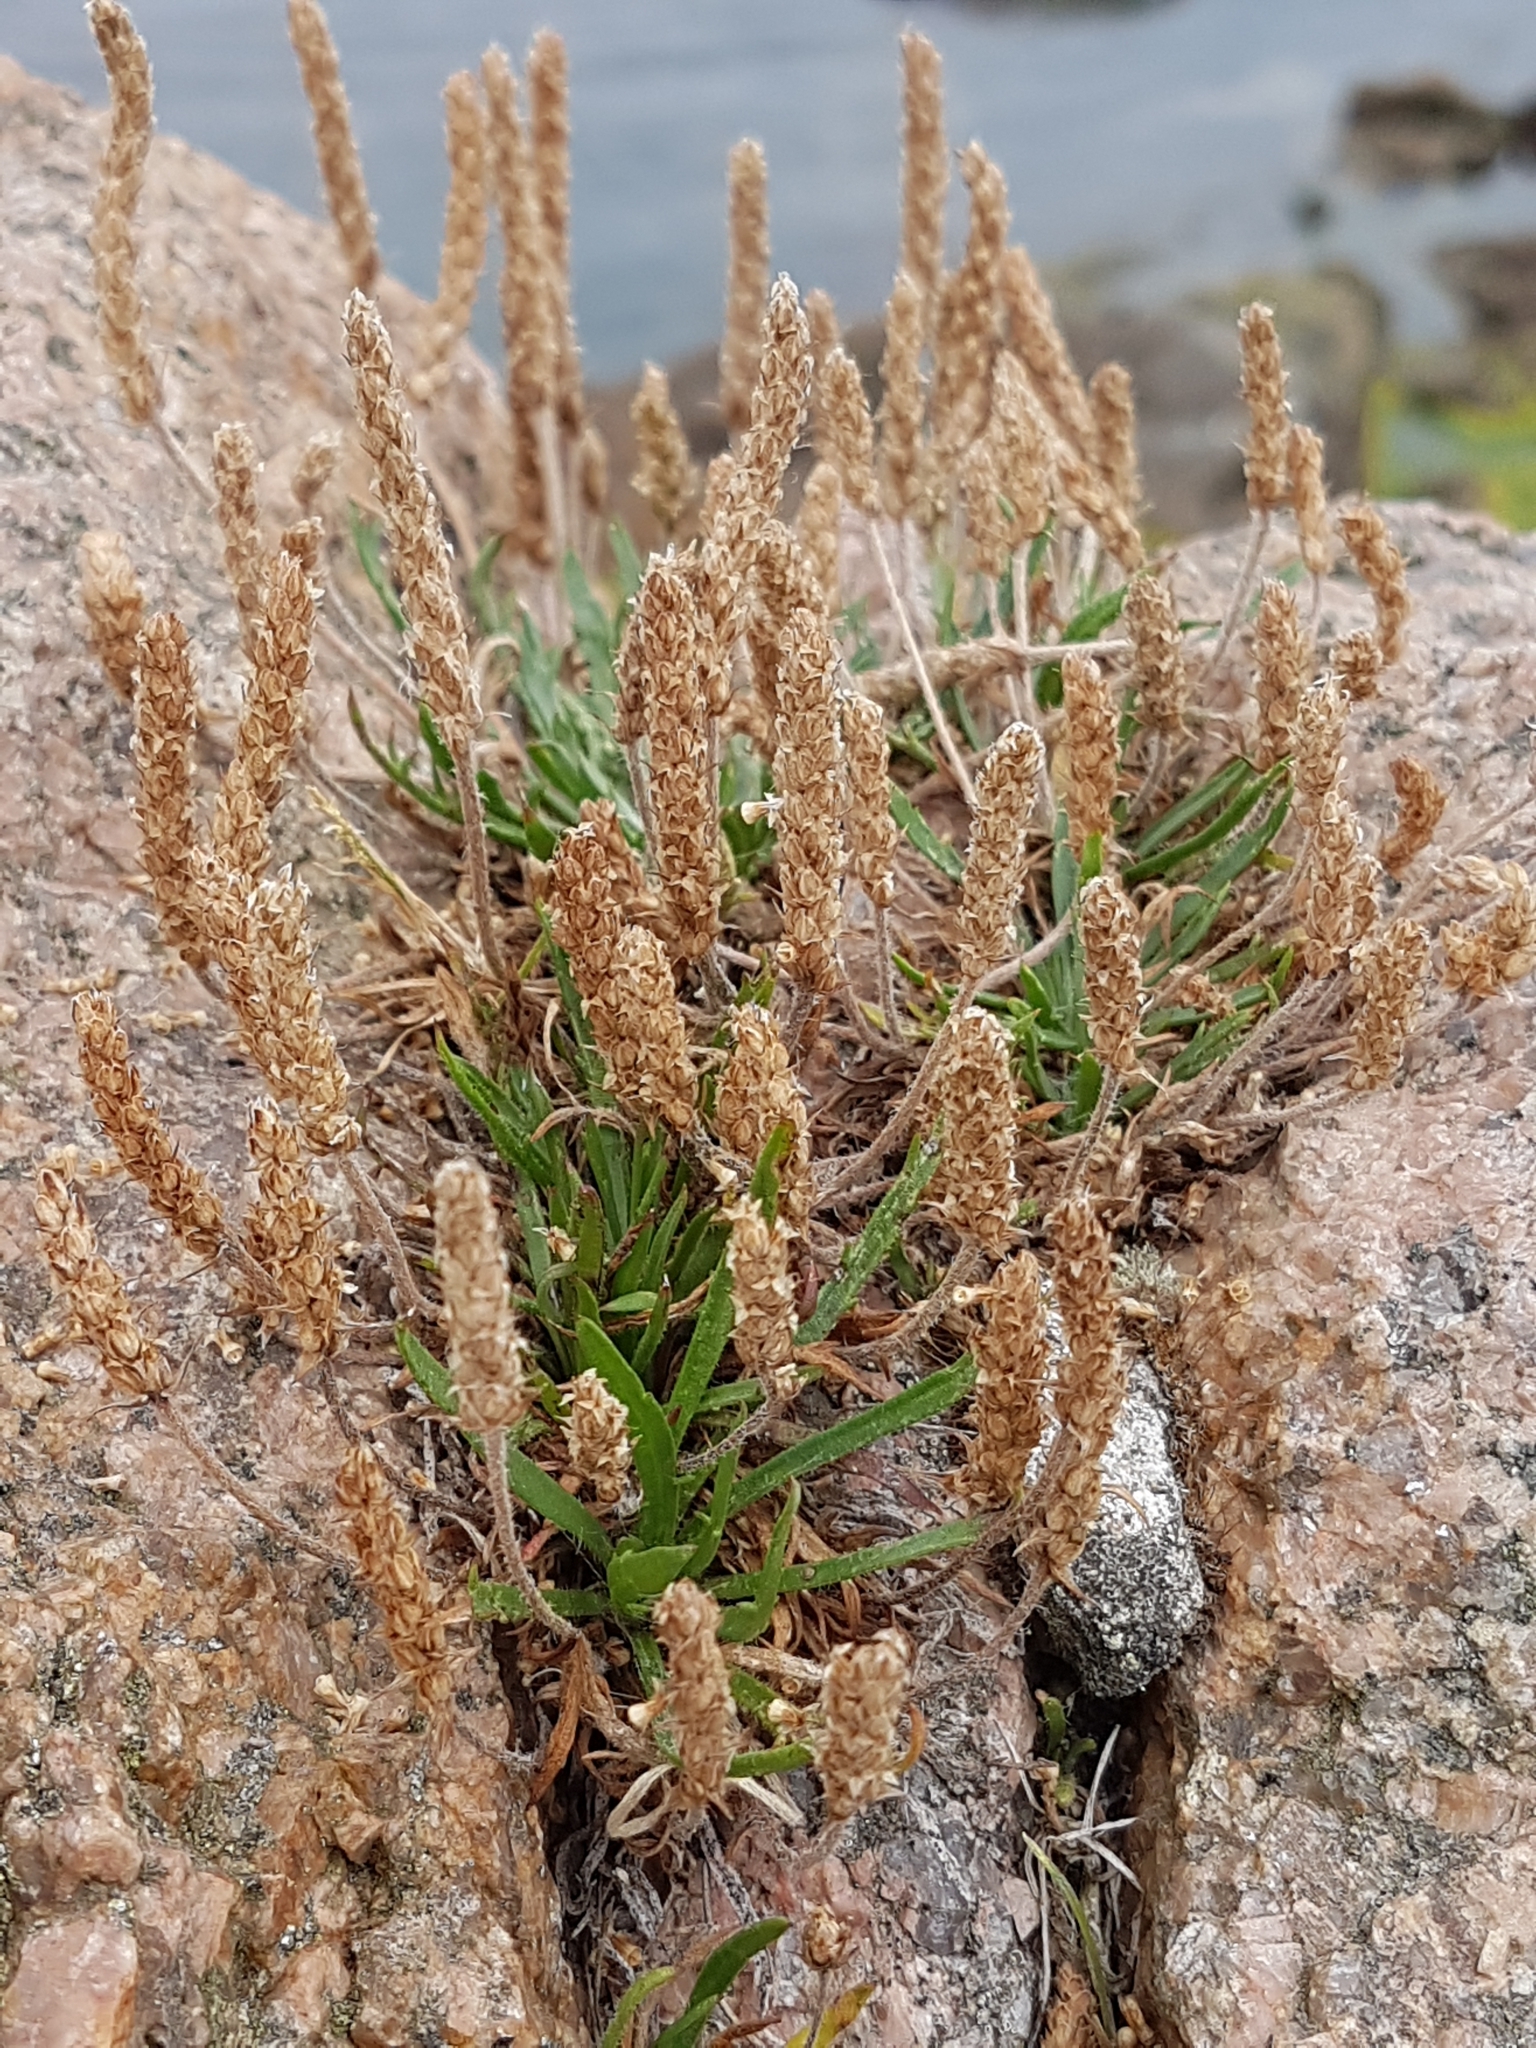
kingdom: Plantae
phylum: Tracheophyta
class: Magnoliopsida
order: Lamiales
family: Plantaginaceae
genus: Plantago
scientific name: Plantago coronopus
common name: Buck's-horn plantain
